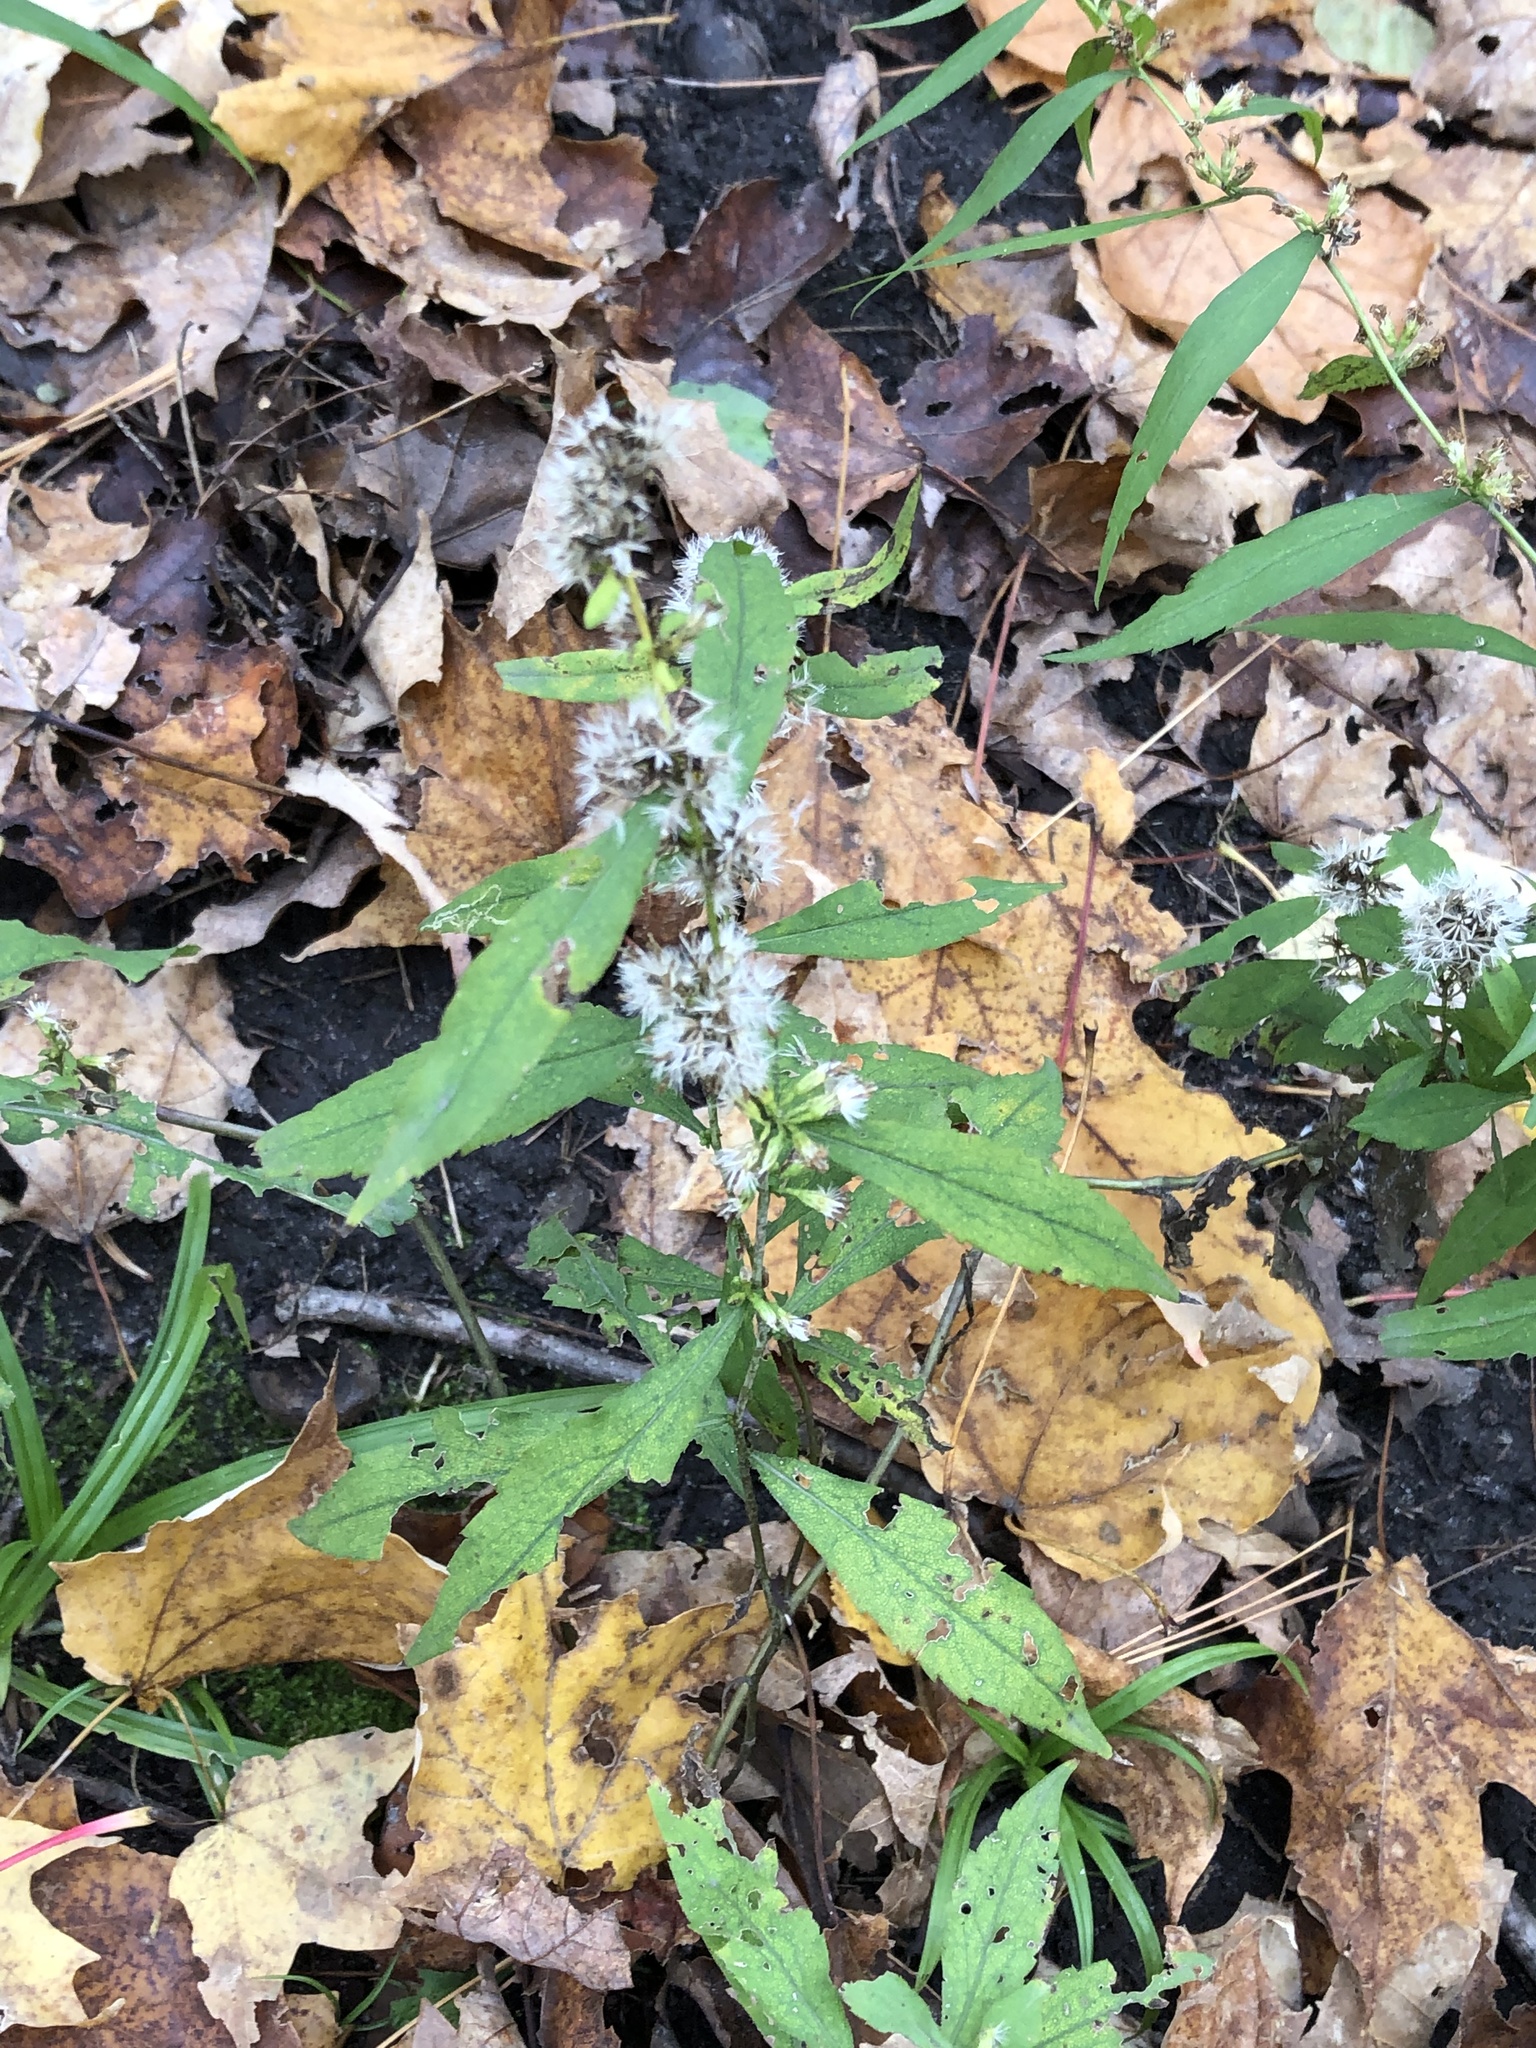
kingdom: Plantae
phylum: Tracheophyta
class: Magnoliopsida
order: Asterales
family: Asteraceae
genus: Solidago
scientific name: Solidago caesia
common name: Woodland goldenrod
